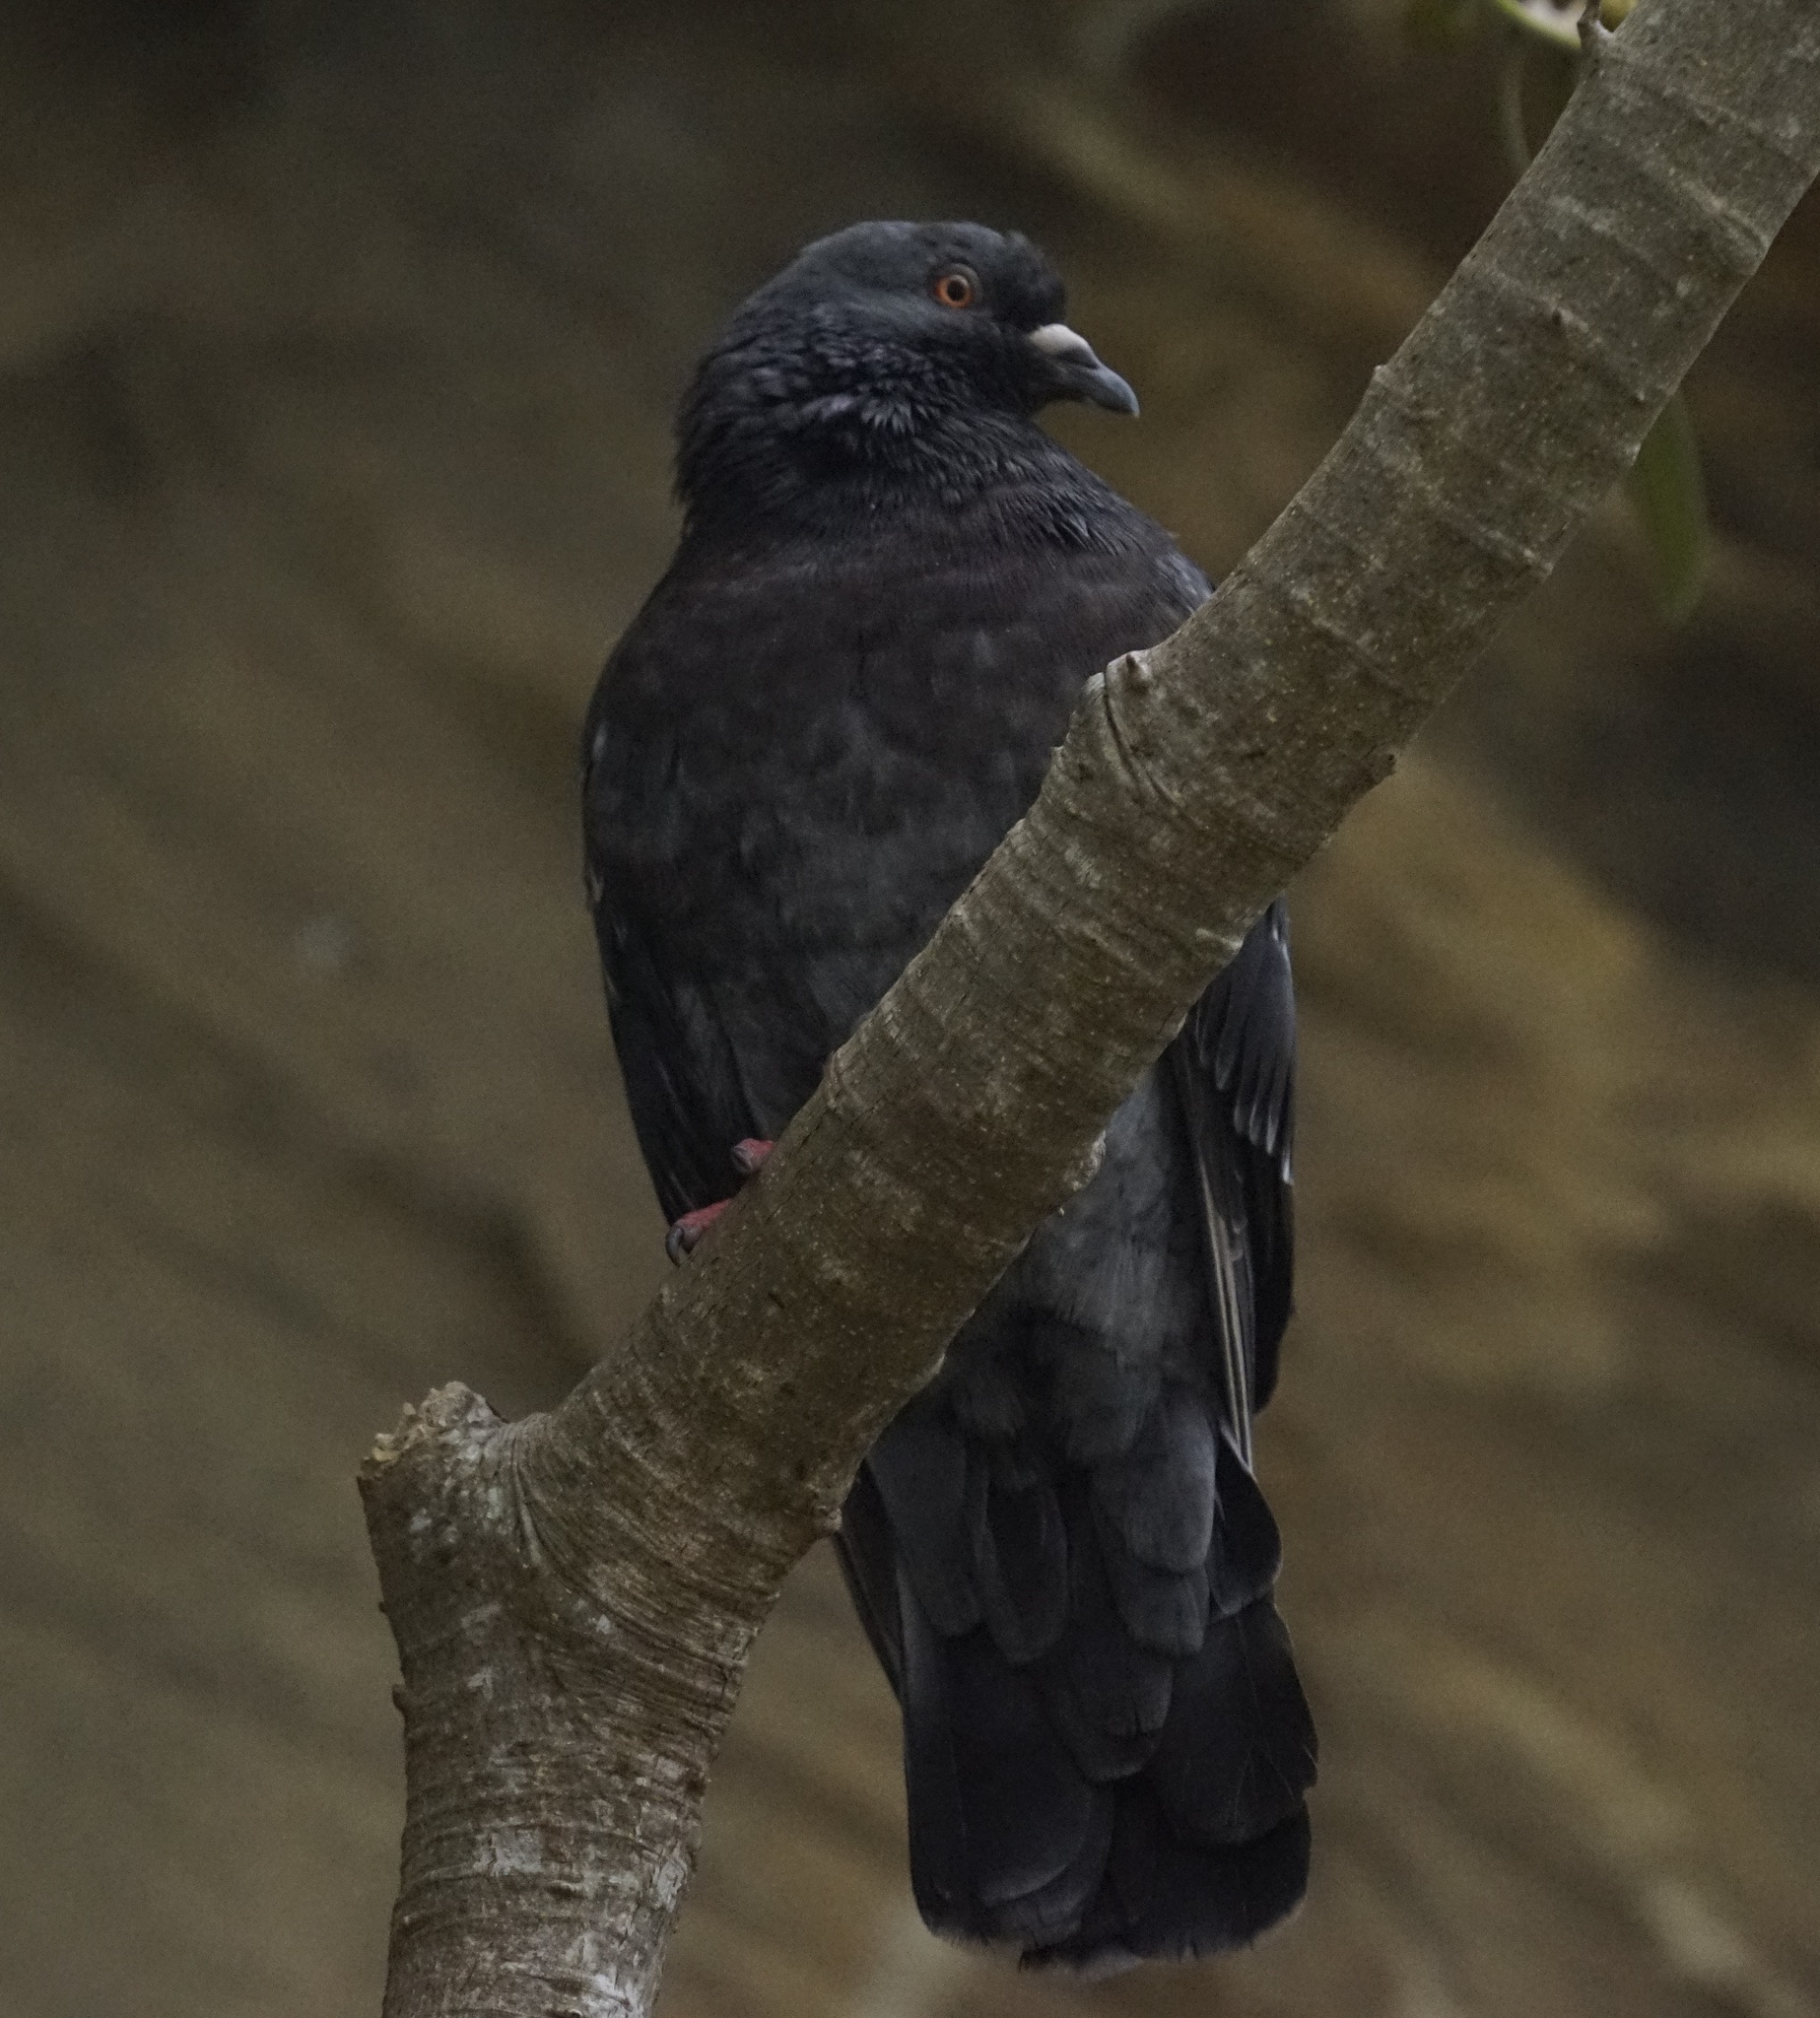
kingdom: Animalia
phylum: Chordata
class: Aves
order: Columbiformes
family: Columbidae
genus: Columba
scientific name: Columba livia
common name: Rock pigeon
